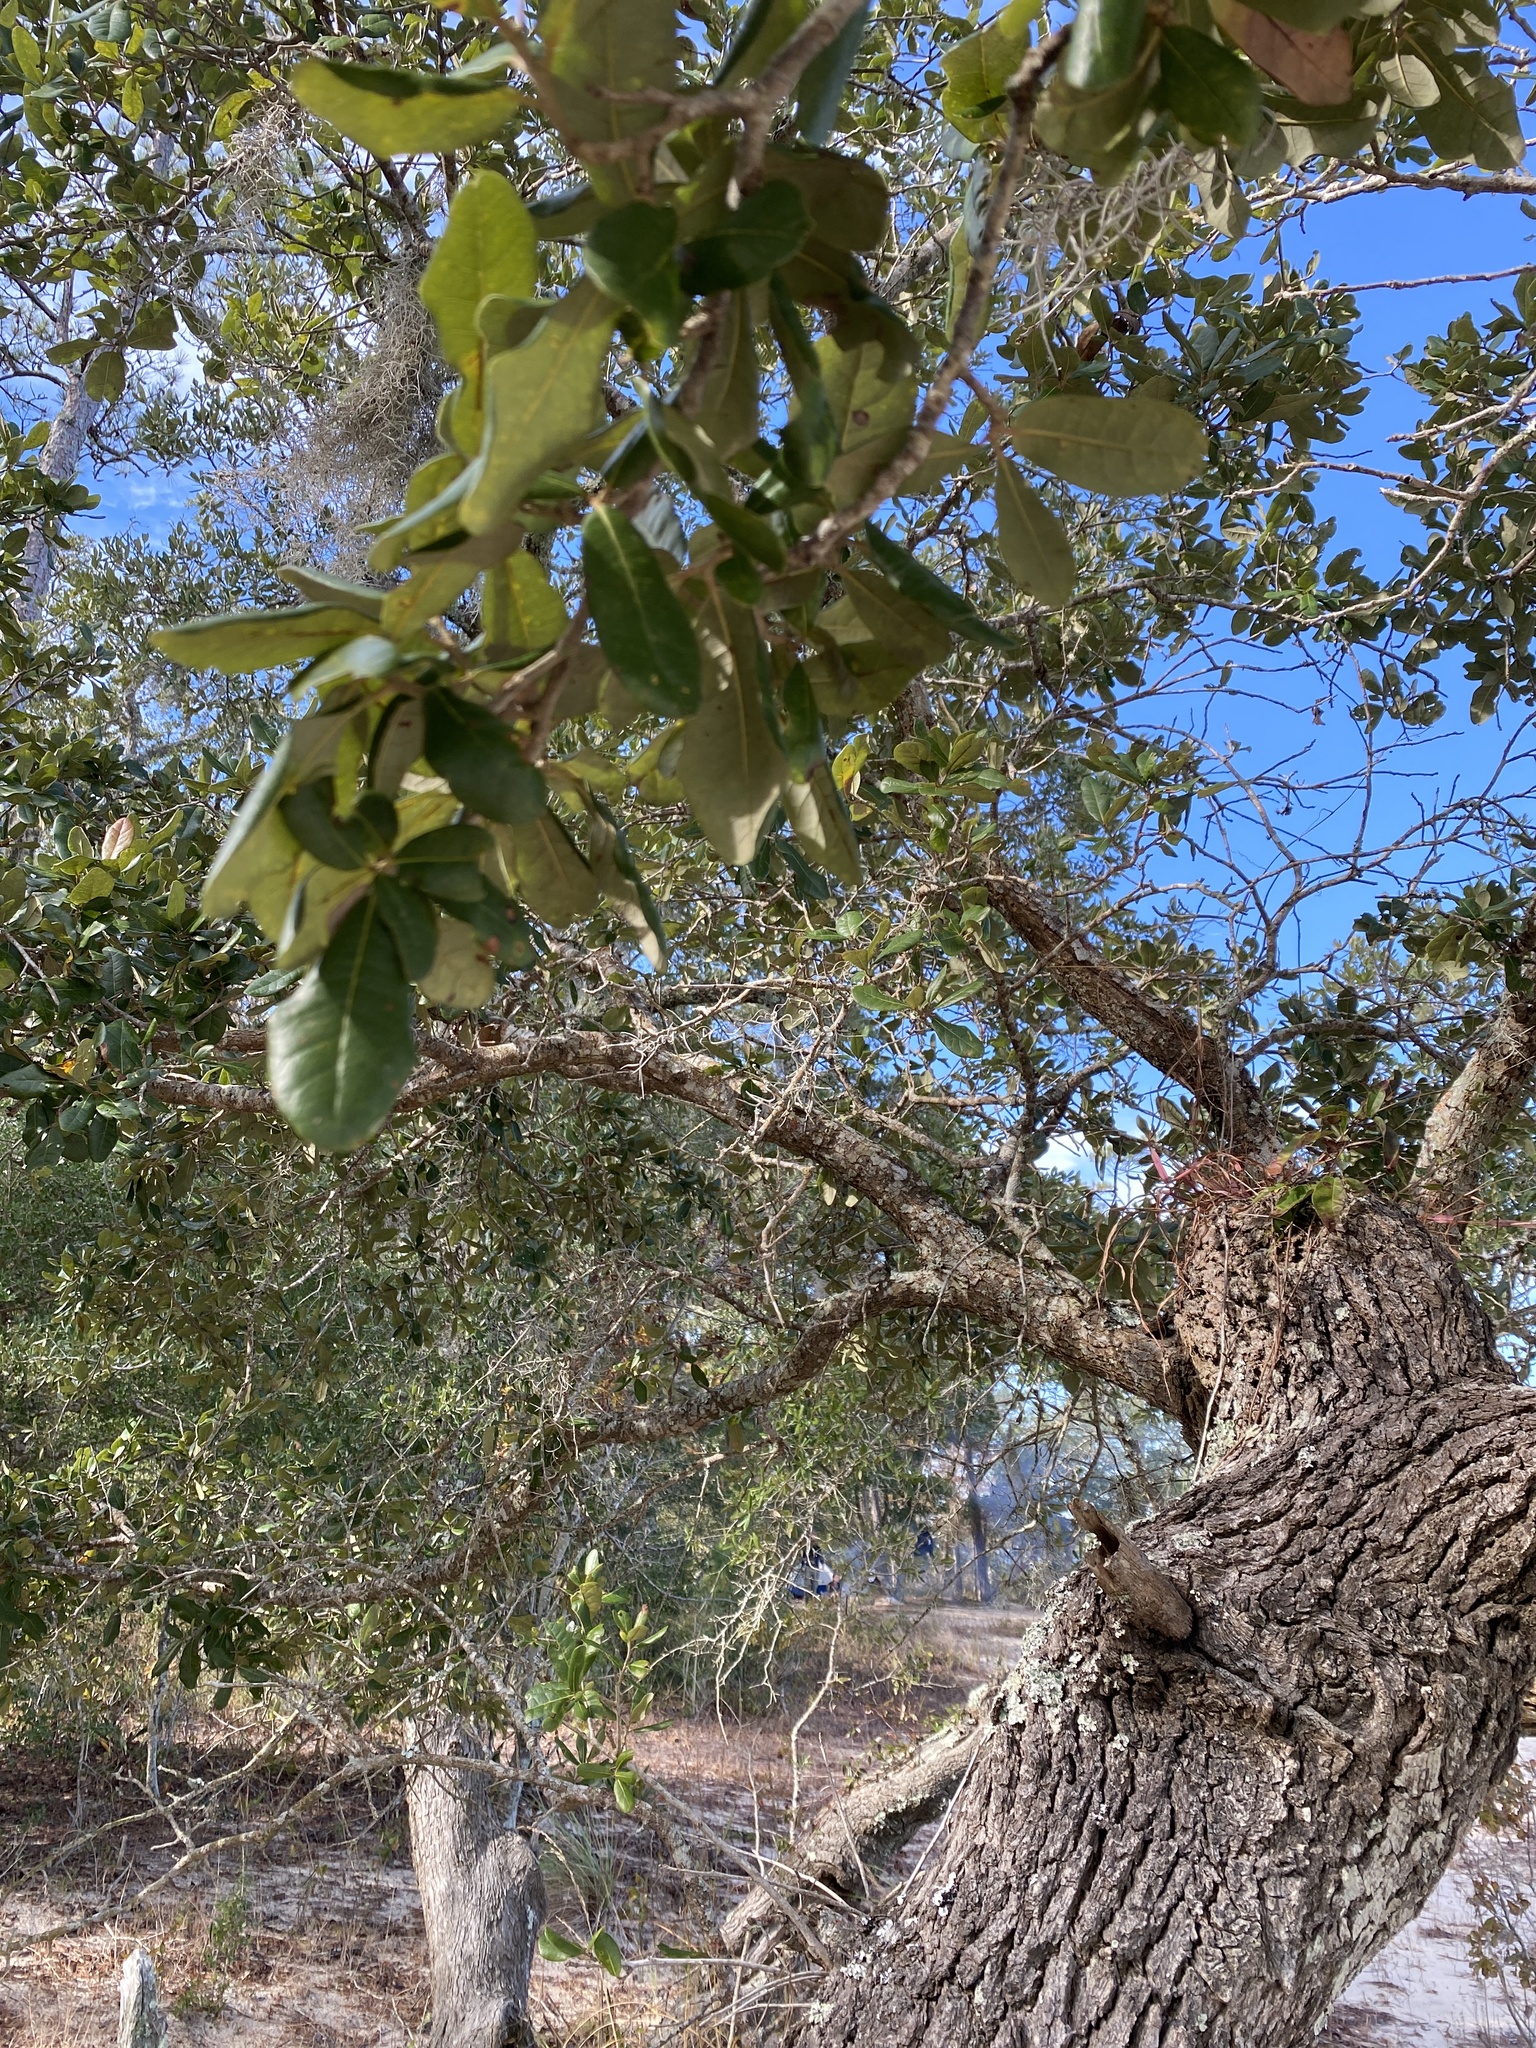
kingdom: Plantae
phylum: Tracheophyta
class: Magnoliopsida
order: Fagales
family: Fagaceae
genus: Quercus
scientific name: Quercus virginiana
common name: Southern live oak
